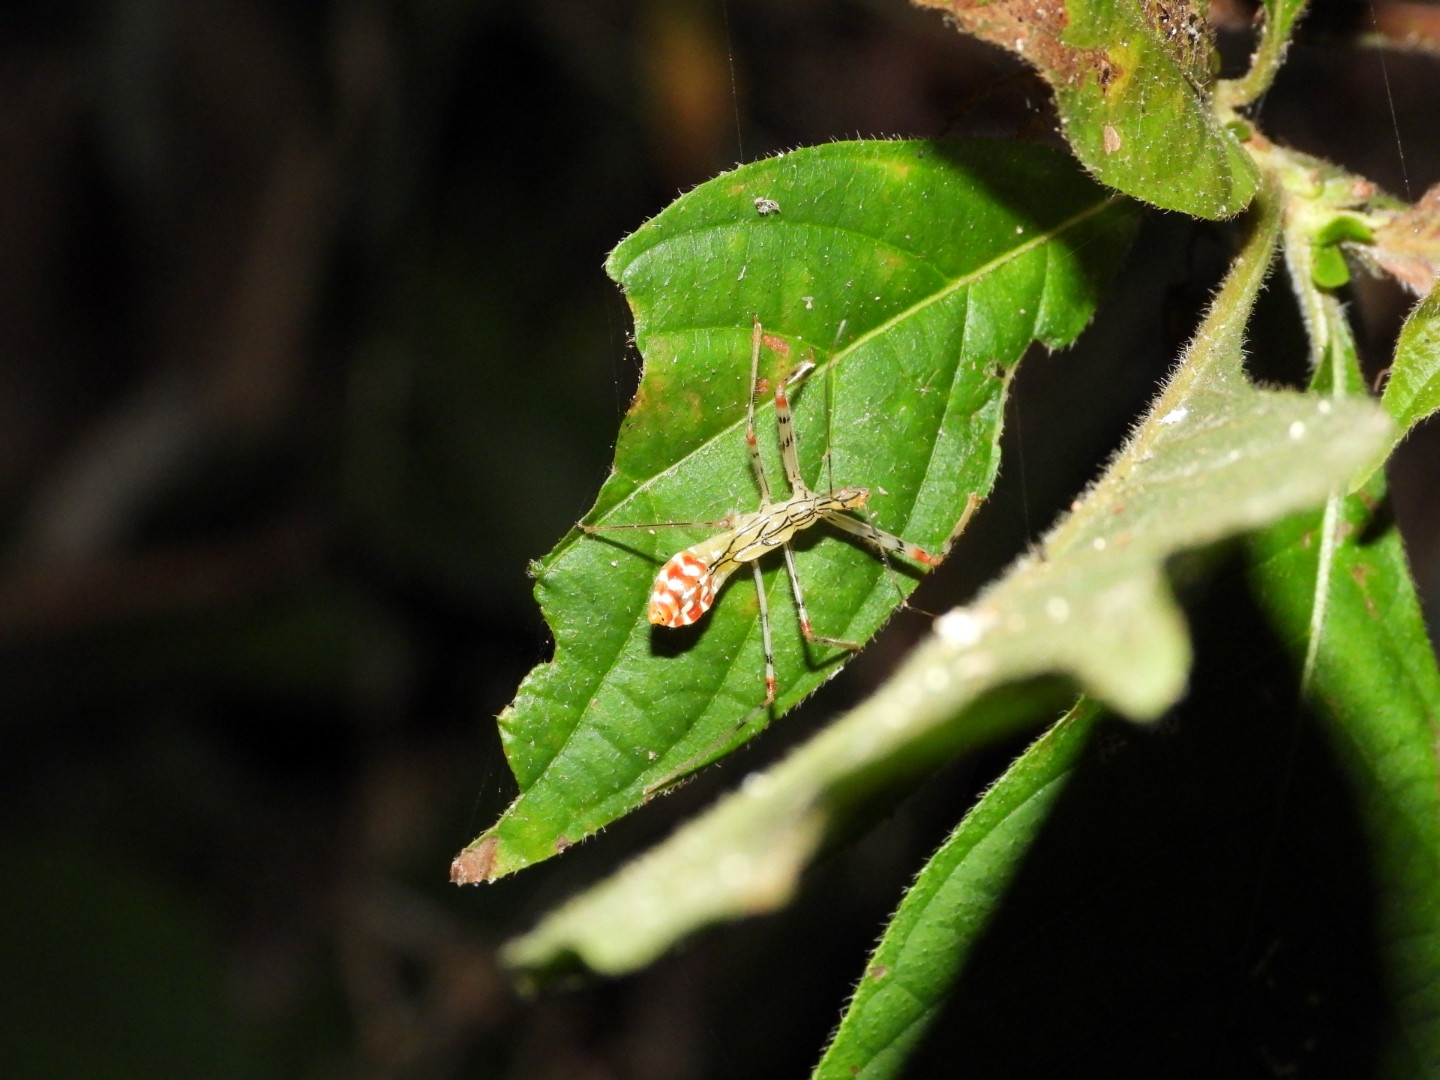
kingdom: Animalia
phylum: Arthropoda
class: Insecta
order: Hemiptera
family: Reduviidae
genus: Epidaus
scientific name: Epidaus sexspinus
